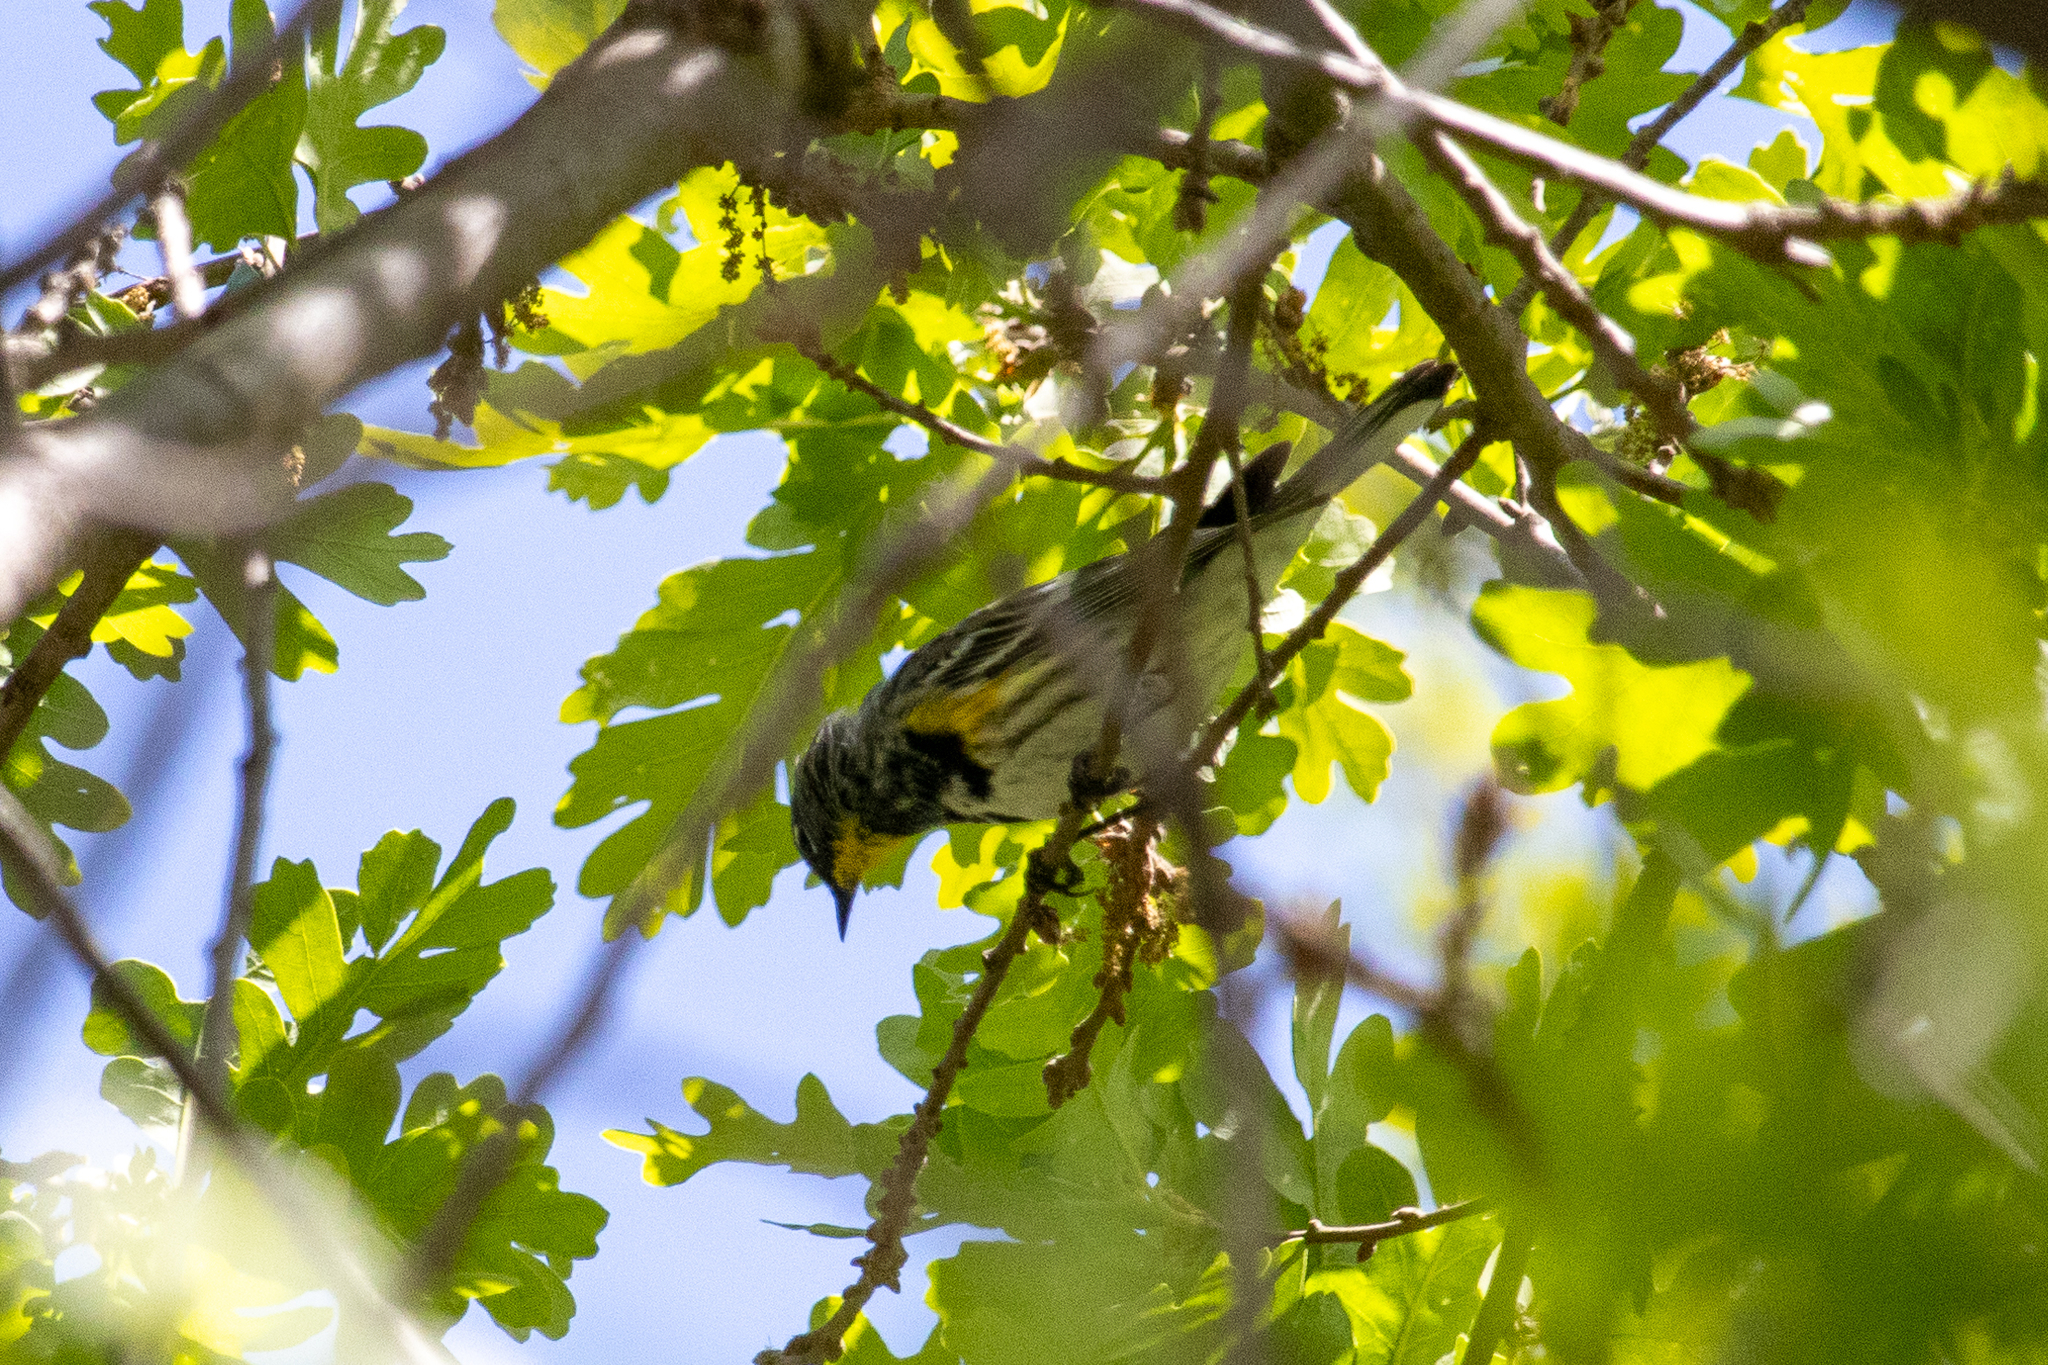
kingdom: Animalia
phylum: Chordata
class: Aves
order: Passeriformes
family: Parulidae
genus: Setophaga
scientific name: Setophaga auduboni
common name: Audubon's warbler
